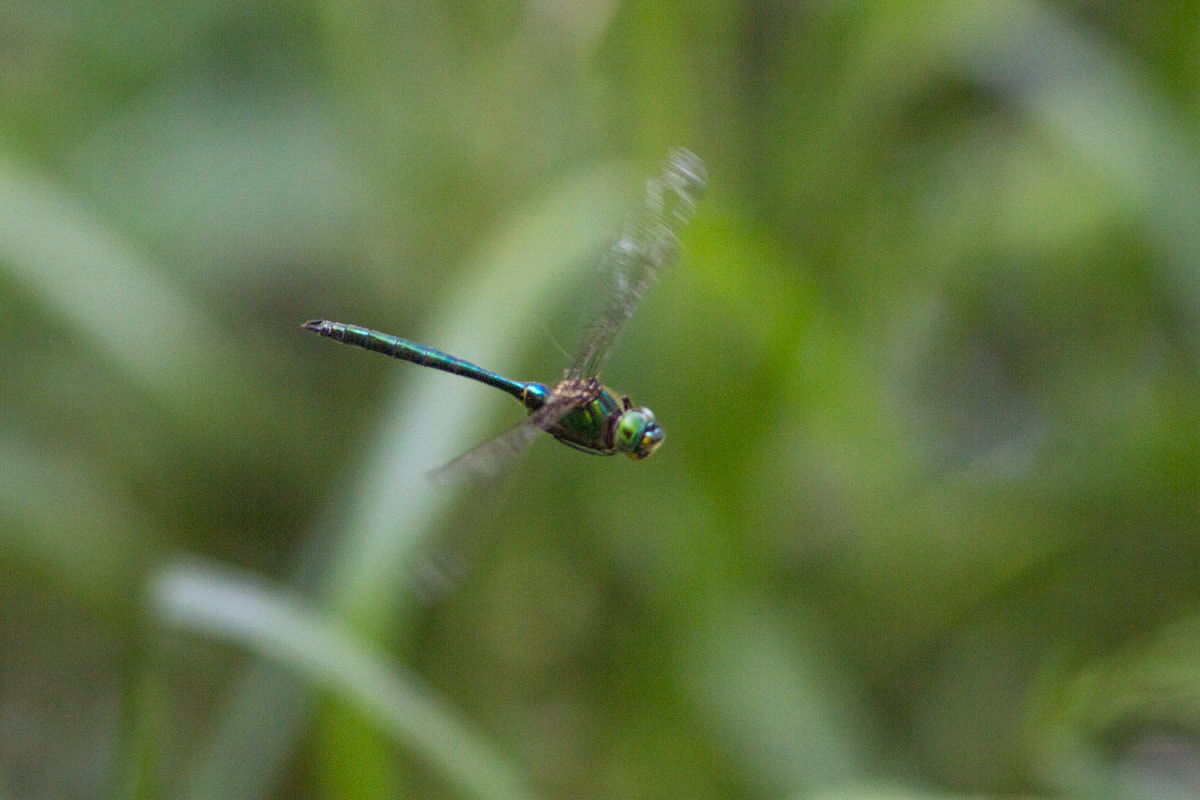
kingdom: Animalia
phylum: Arthropoda
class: Insecta
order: Odonata
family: Corduliidae
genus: Somatochlora
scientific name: Somatochlora metallica
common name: Brilliant emerald
